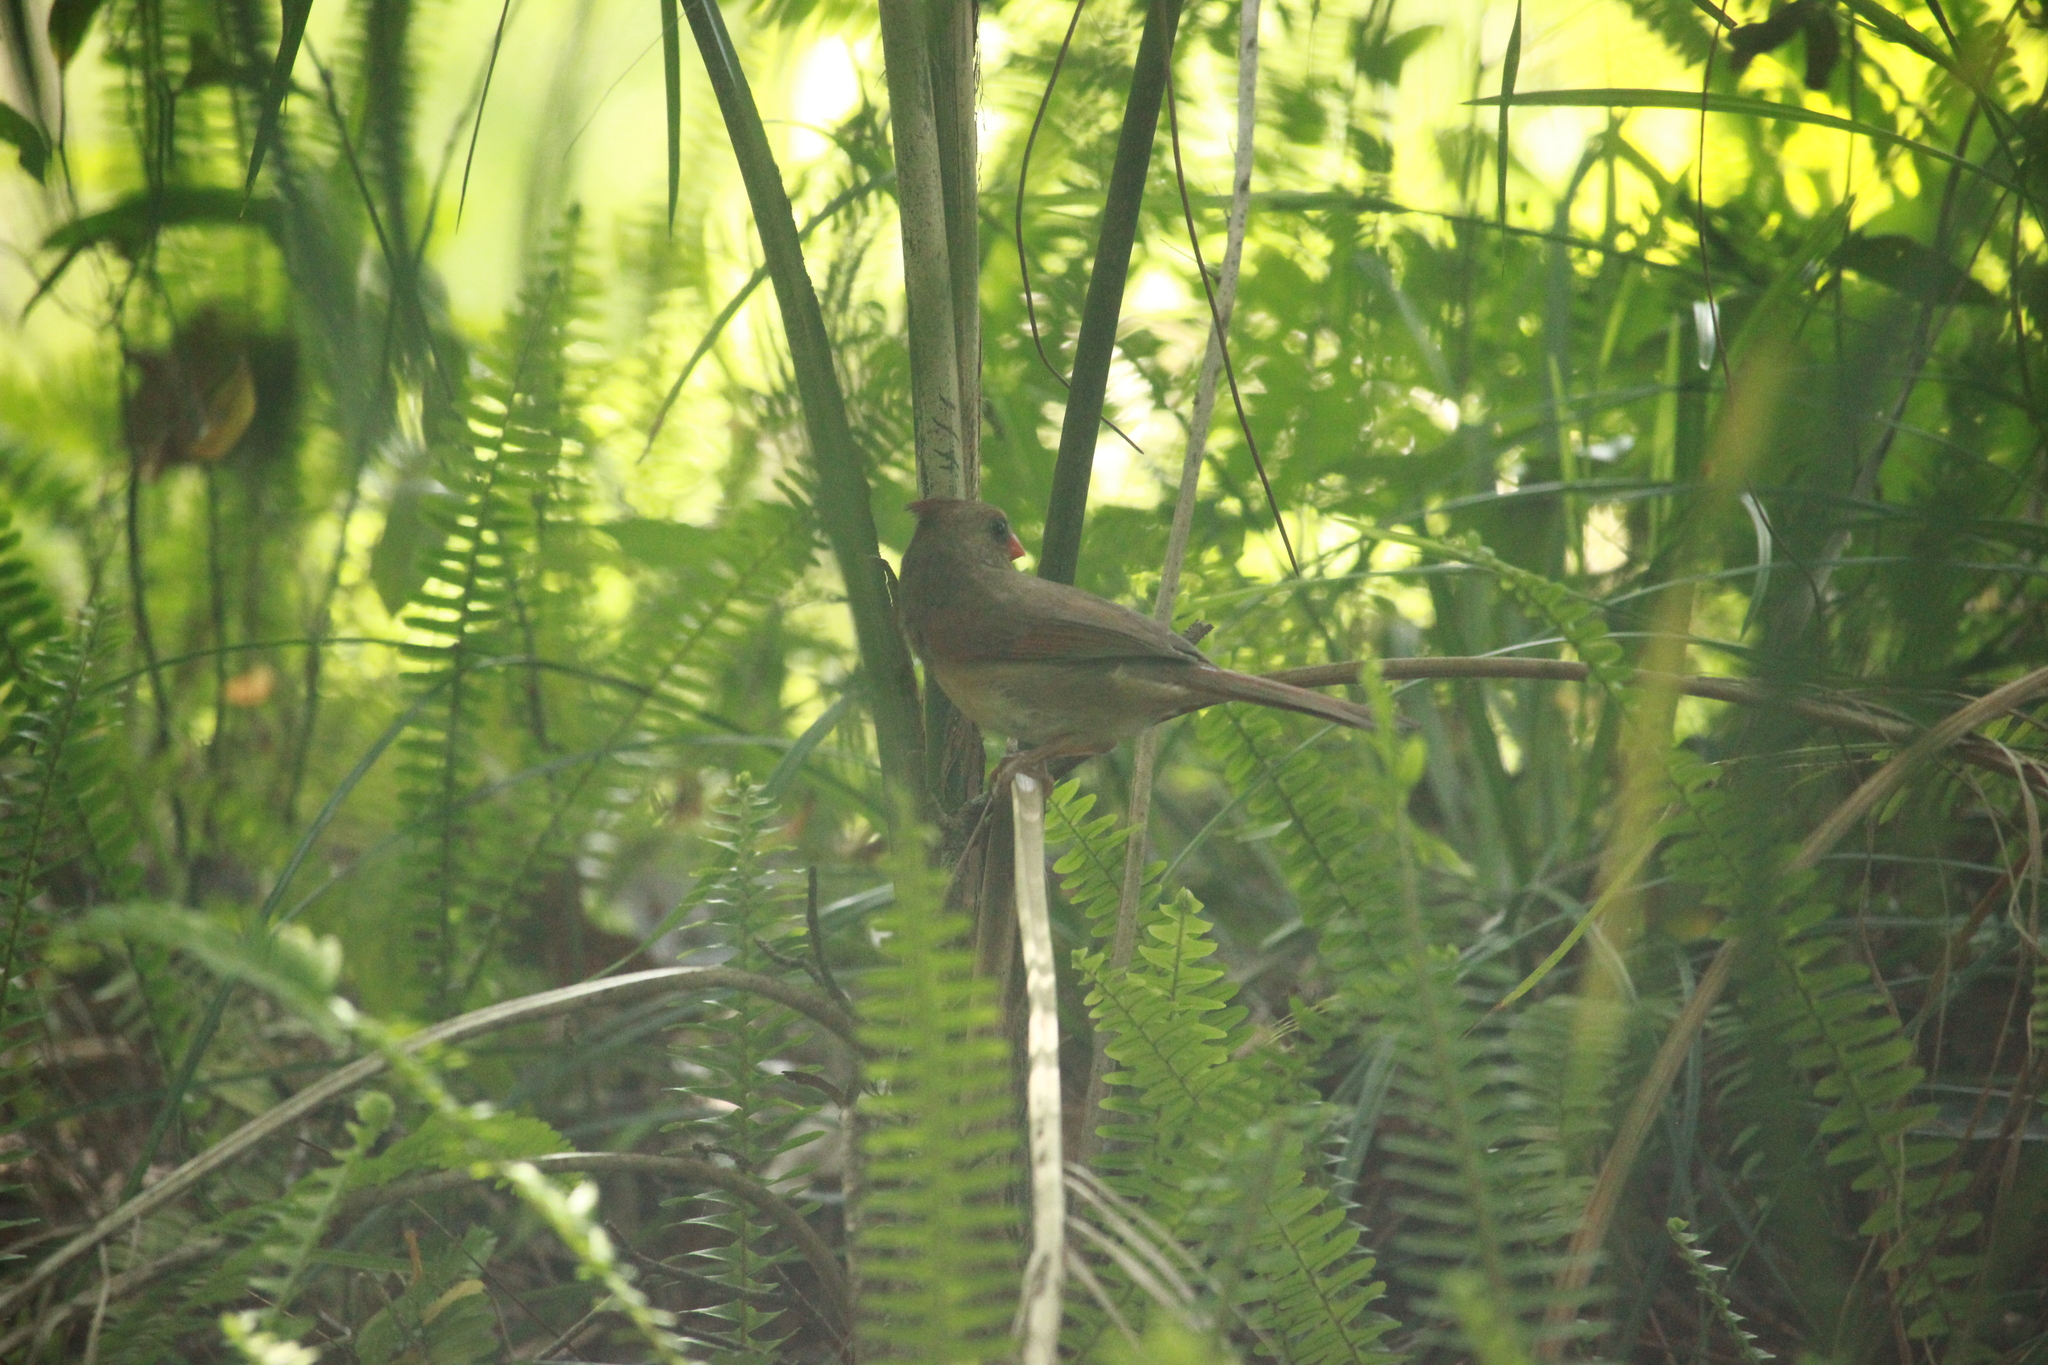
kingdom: Animalia
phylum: Chordata
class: Aves
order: Passeriformes
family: Cardinalidae
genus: Cardinalis
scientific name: Cardinalis cardinalis
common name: Northern cardinal
